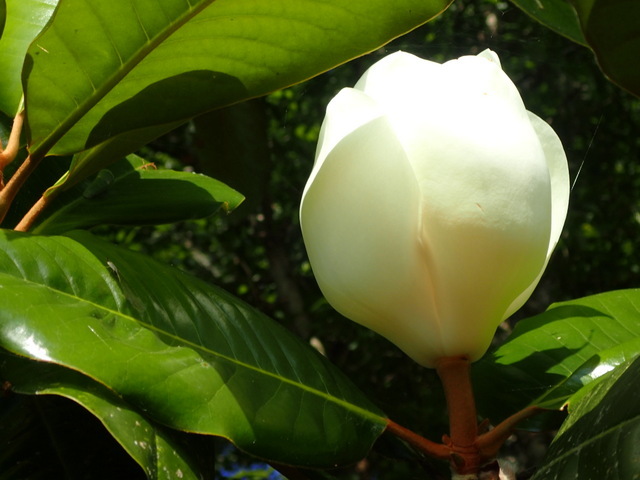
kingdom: Plantae
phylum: Tracheophyta
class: Magnoliopsida
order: Magnoliales
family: Magnoliaceae
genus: Magnolia
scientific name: Magnolia grandiflora
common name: Southern magnolia
